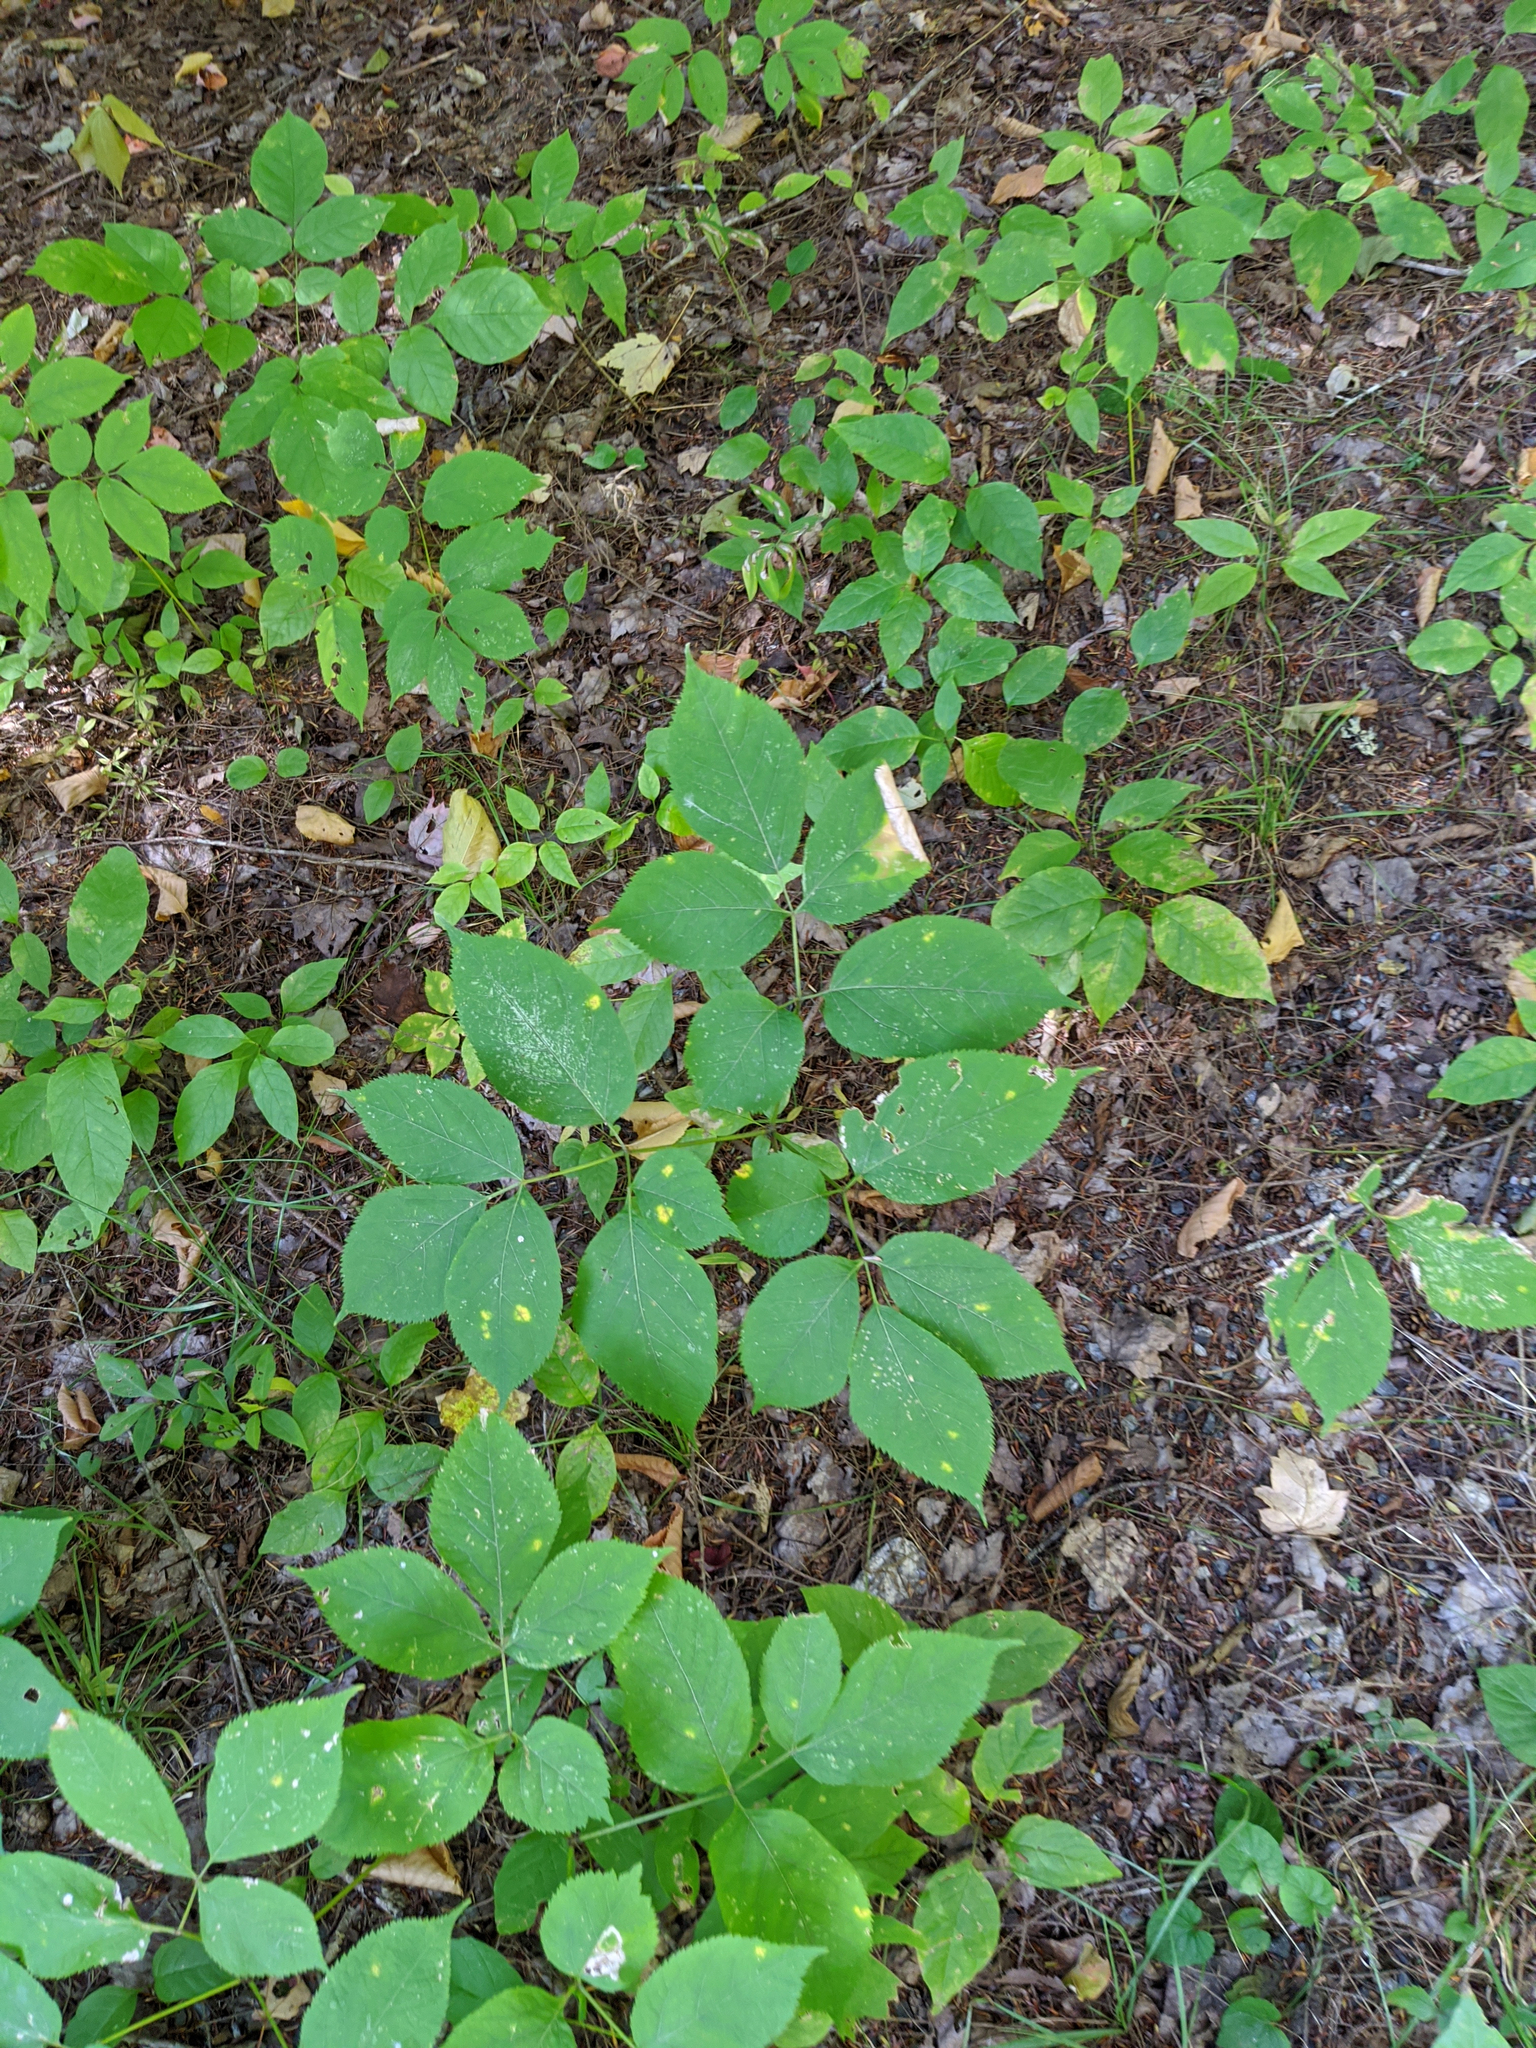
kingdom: Plantae
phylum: Tracheophyta
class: Magnoliopsida
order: Apiales
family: Araliaceae
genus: Aralia
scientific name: Aralia nudicaulis
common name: Wild sarsaparilla
